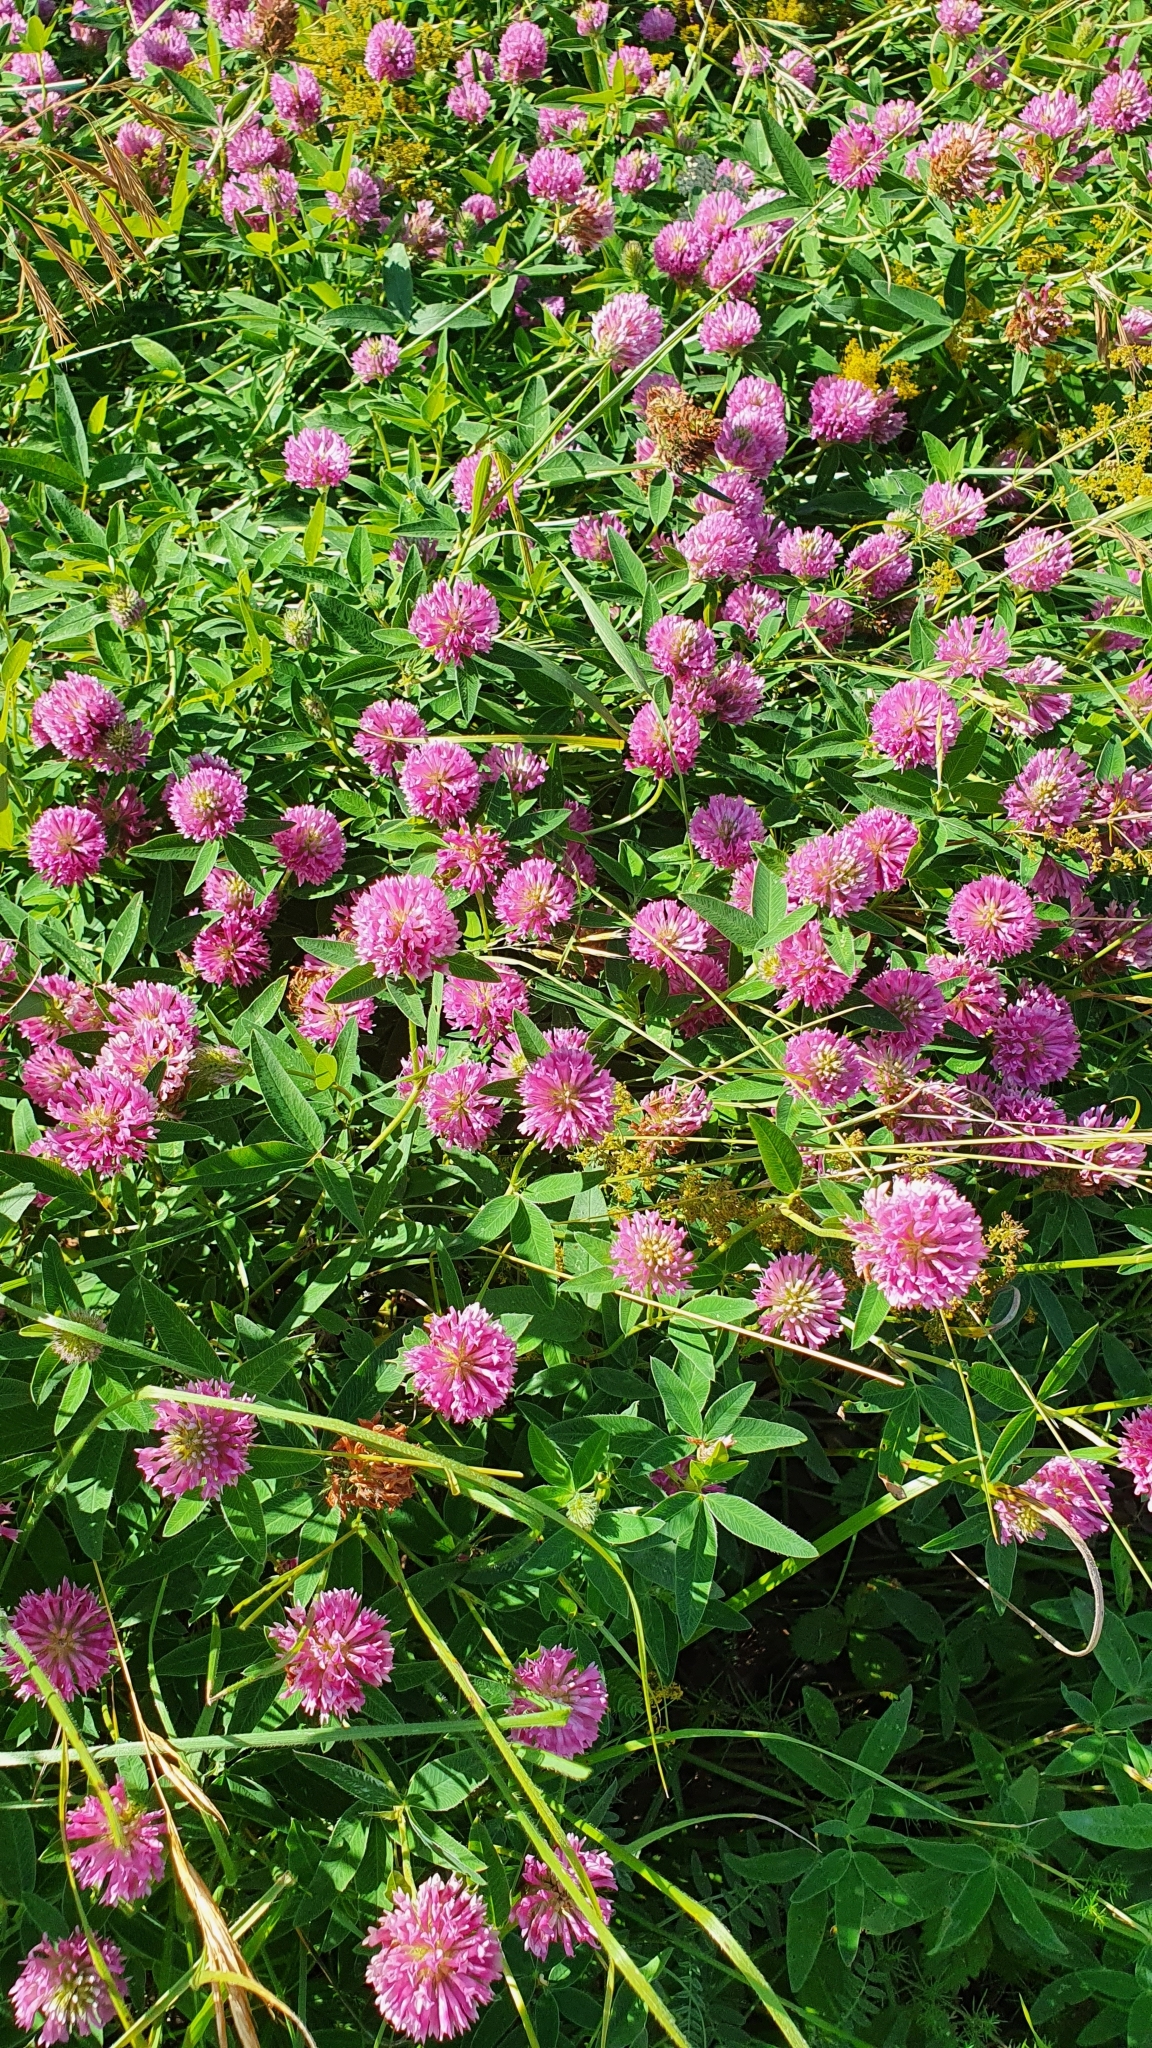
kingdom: Plantae
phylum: Tracheophyta
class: Magnoliopsida
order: Fabales
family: Fabaceae
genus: Trifolium
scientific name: Trifolium medium
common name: Zigzag clover
